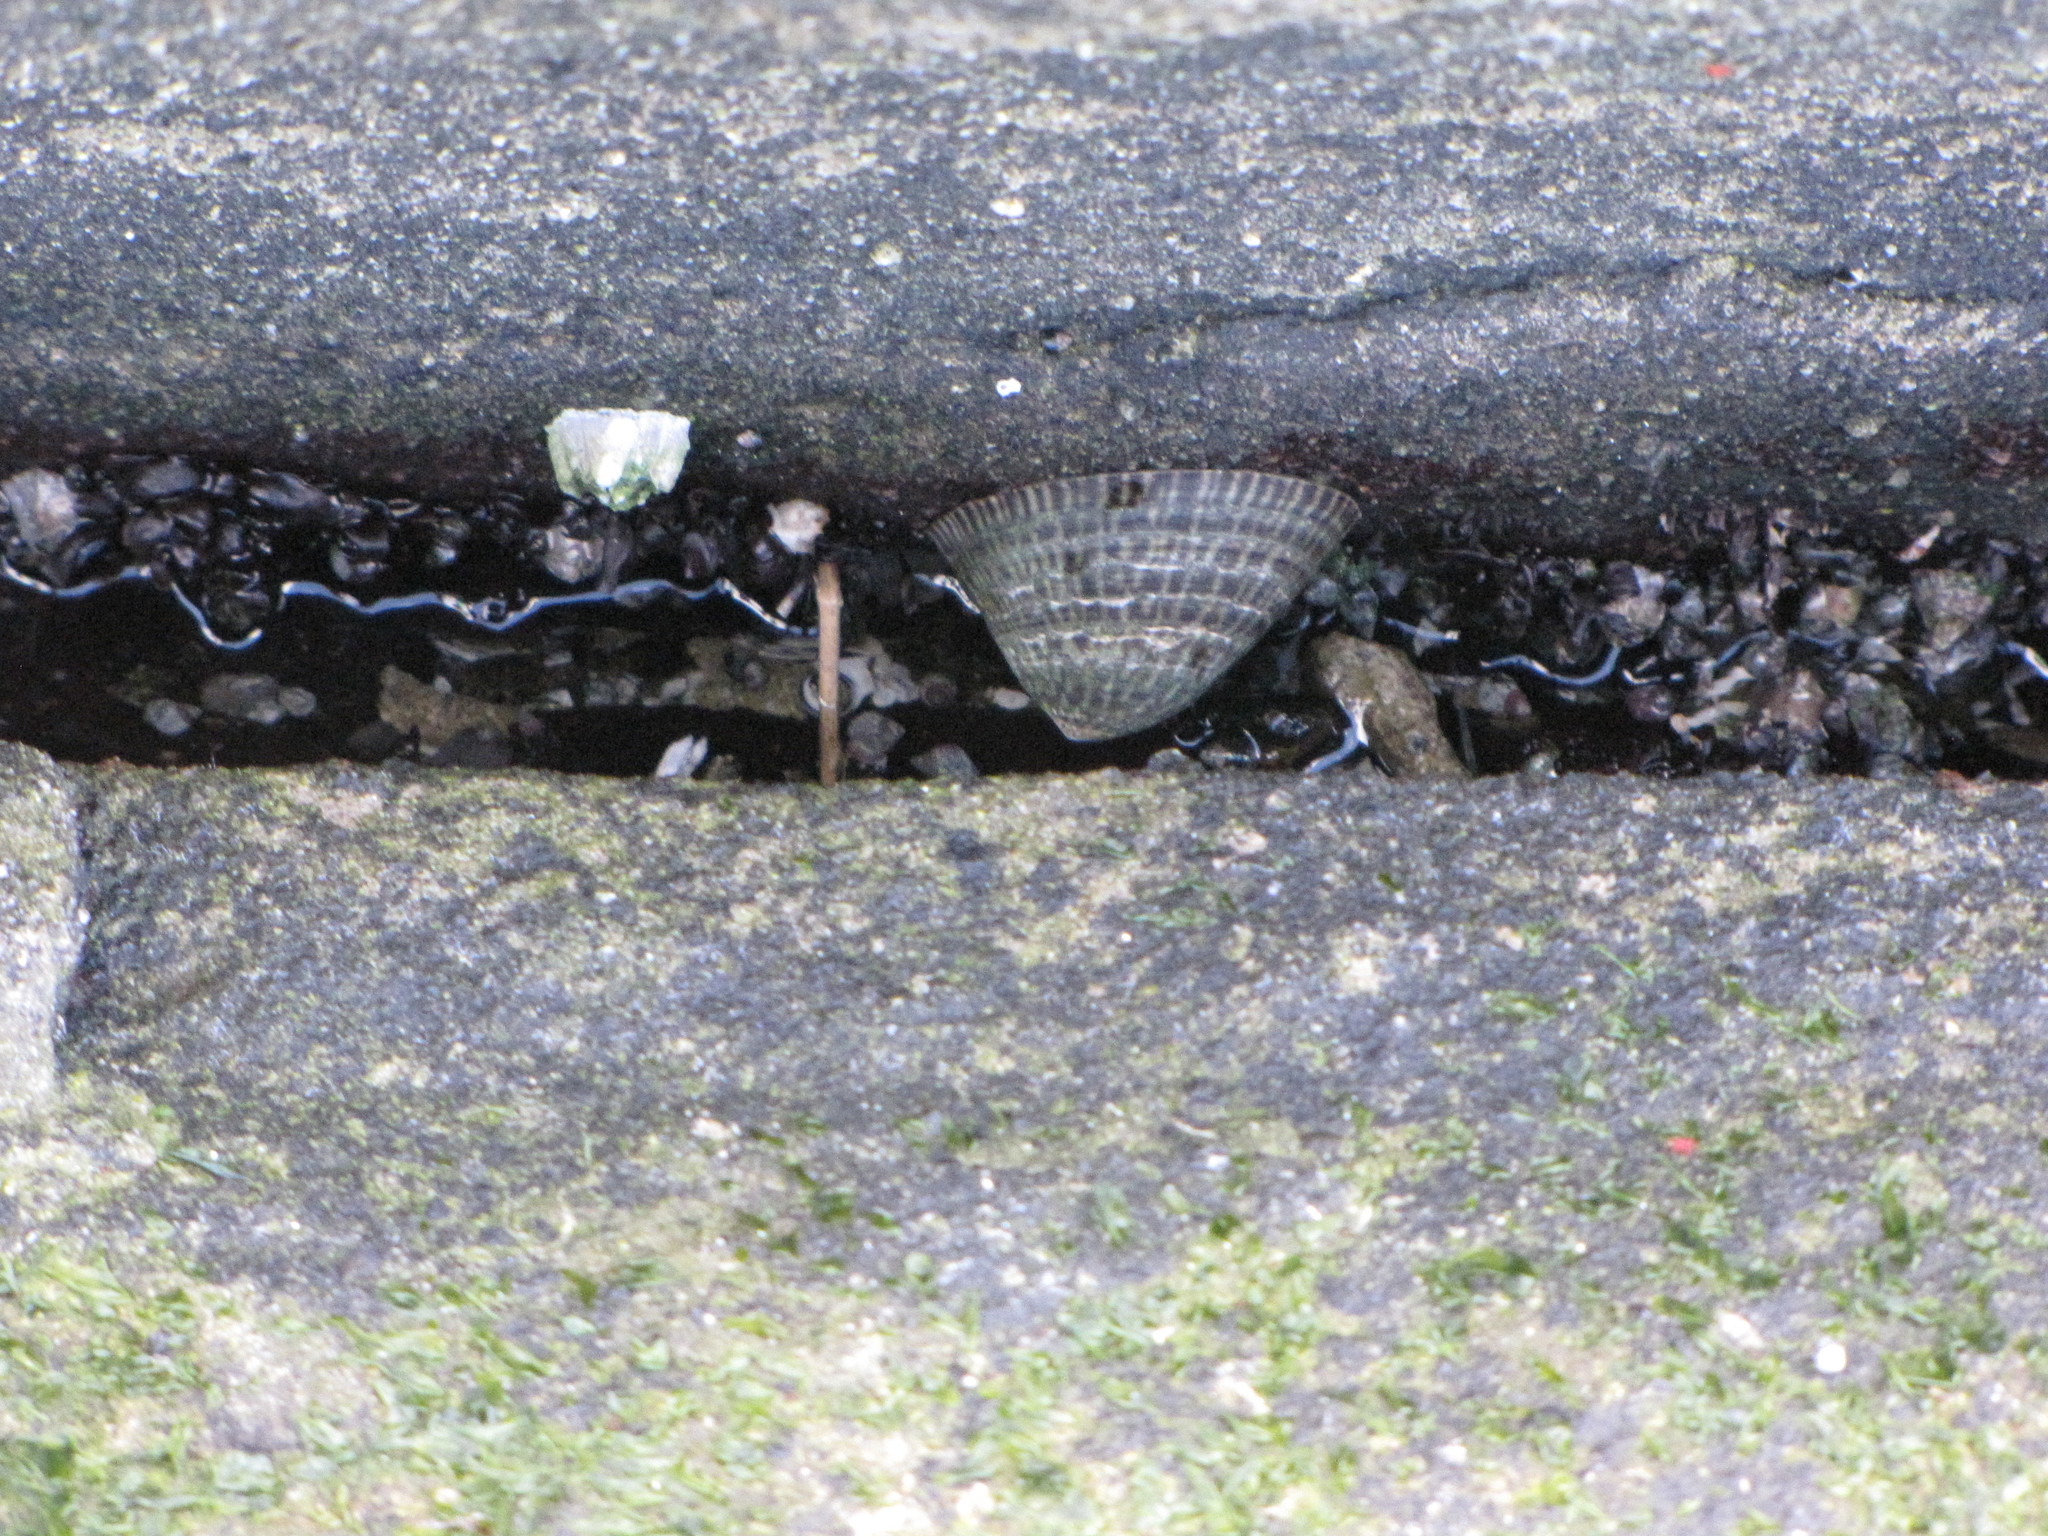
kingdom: Animalia
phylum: Mollusca
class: Gastropoda
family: Lottiidae
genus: Lottia
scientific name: Lottia persona
